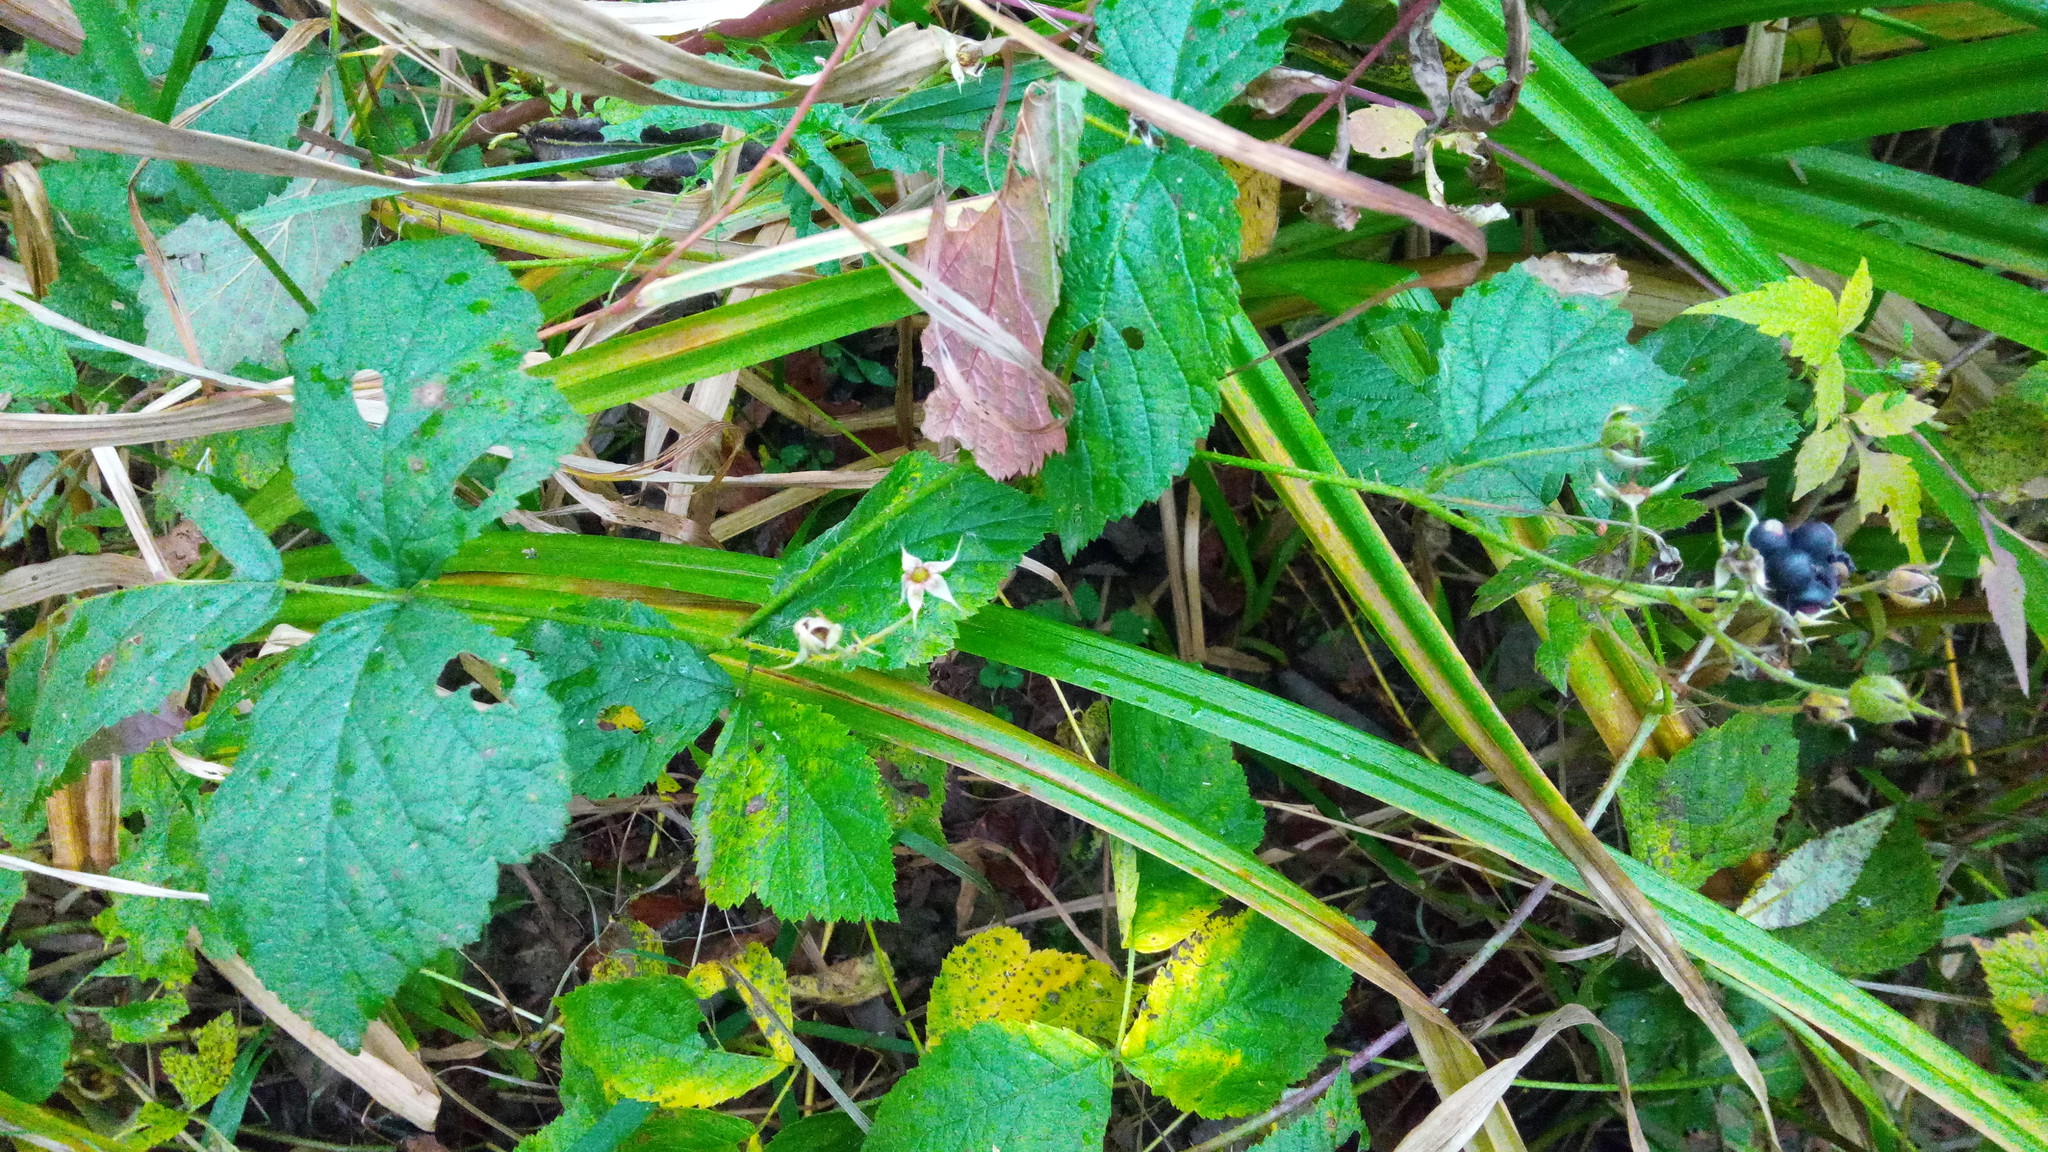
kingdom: Plantae
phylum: Tracheophyta
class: Magnoliopsida
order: Rosales
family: Rosaceae
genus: Rubus
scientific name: Rubus caesius
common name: Dewberry
